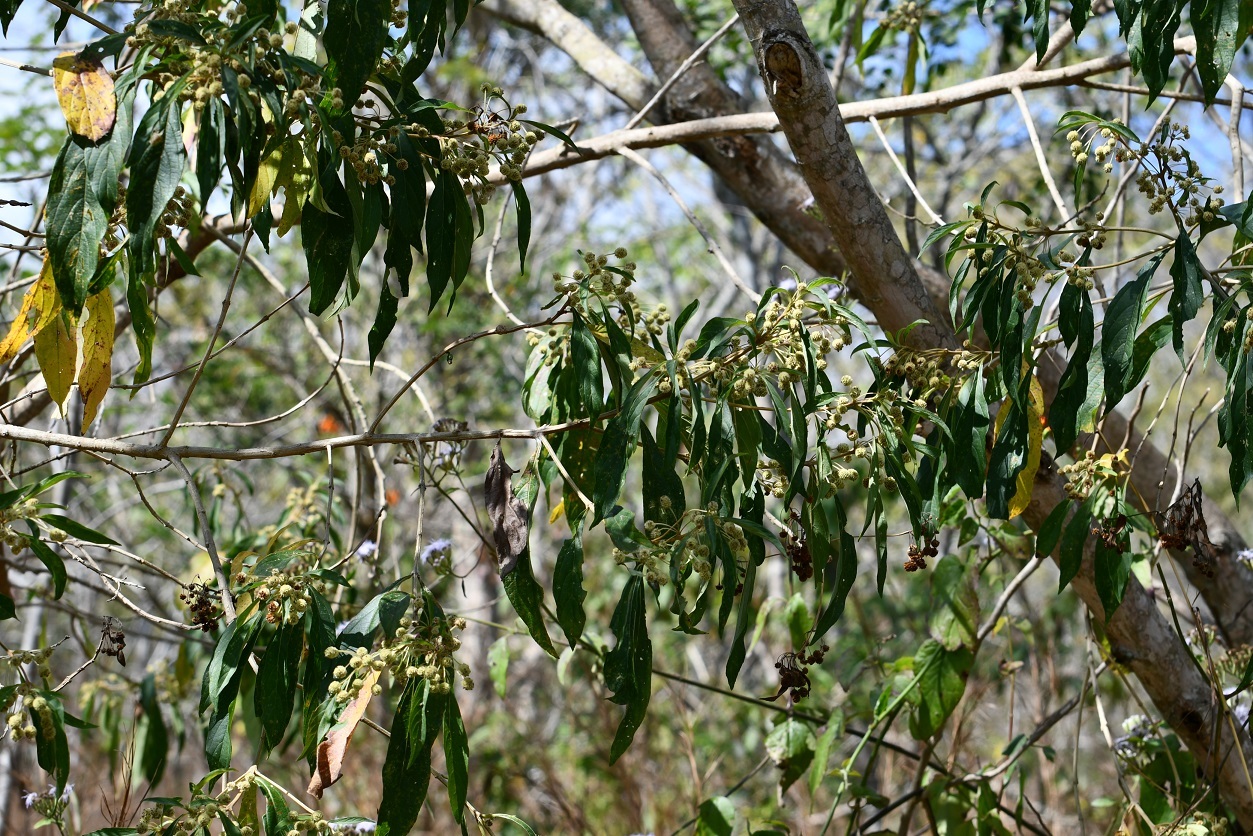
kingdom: Plantae
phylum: Tracheophyta
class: Magnoliopsida
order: Lamiales
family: Verbenaceae
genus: Lippia
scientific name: Lippia umbellata
